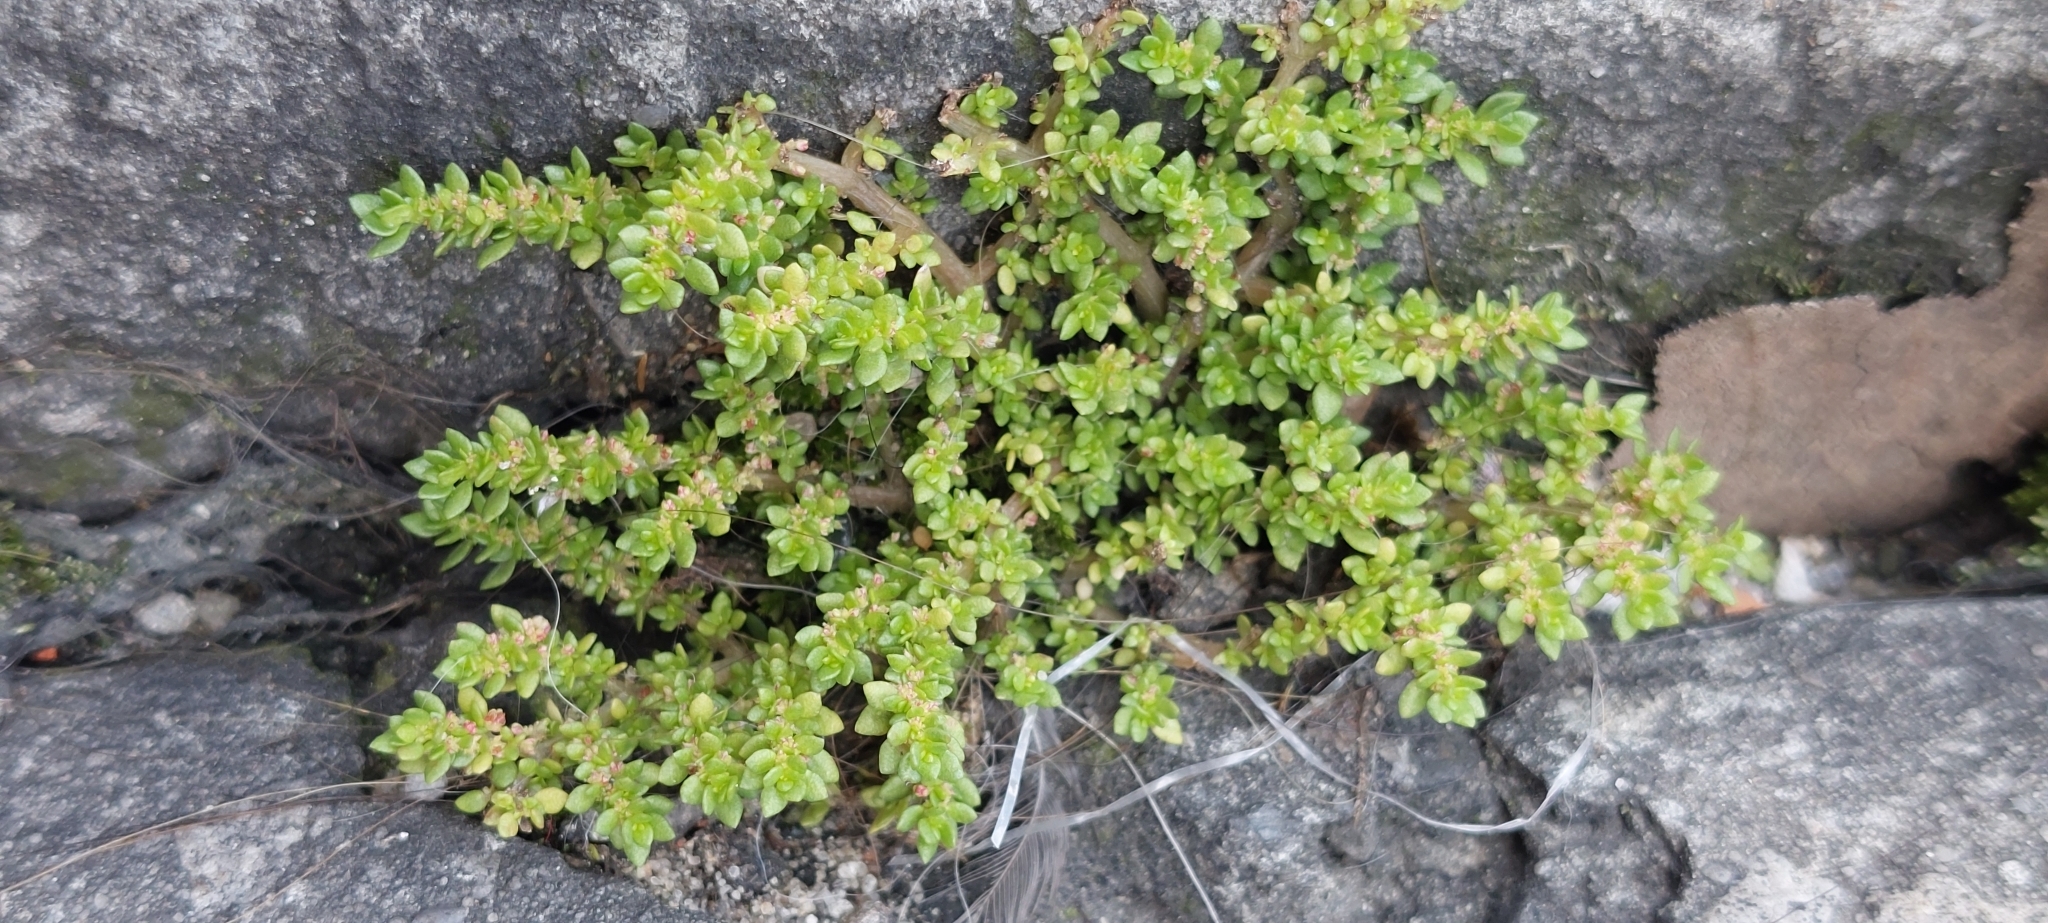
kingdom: Plantae
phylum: Tracheophyta
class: Magnoliopsida
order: Rosales
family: Urticaceae
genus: Pilea
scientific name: Pilea microphylla
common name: Artillery-plant
